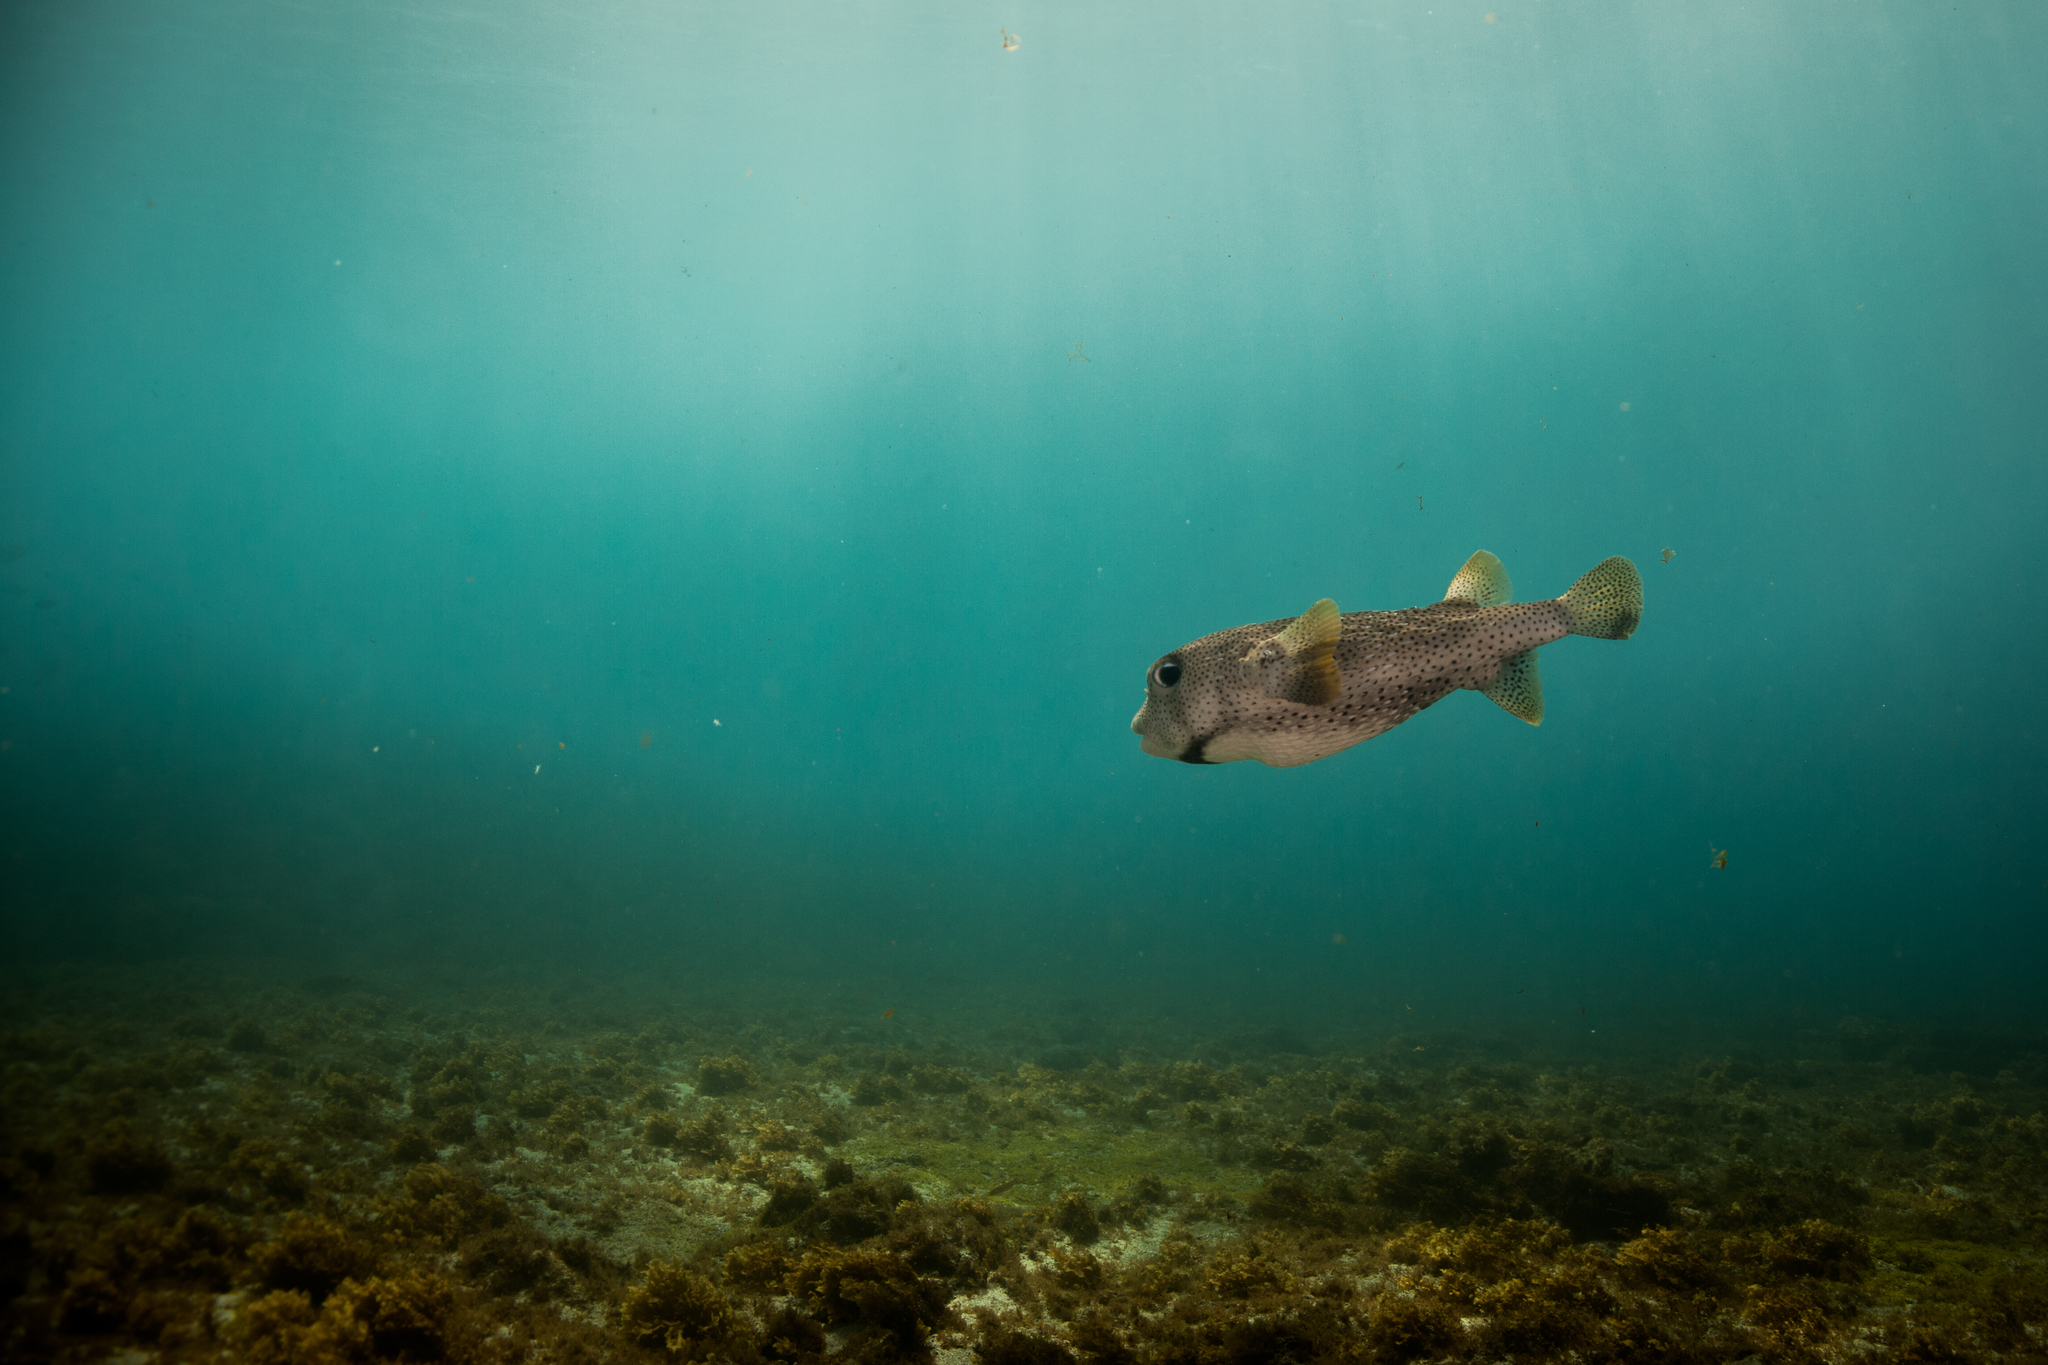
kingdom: Animalia
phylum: Chordata
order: Tetraodontiformes
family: Diodontidae
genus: Diodon
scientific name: Diodon hystrix
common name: Giant porcupinefish
